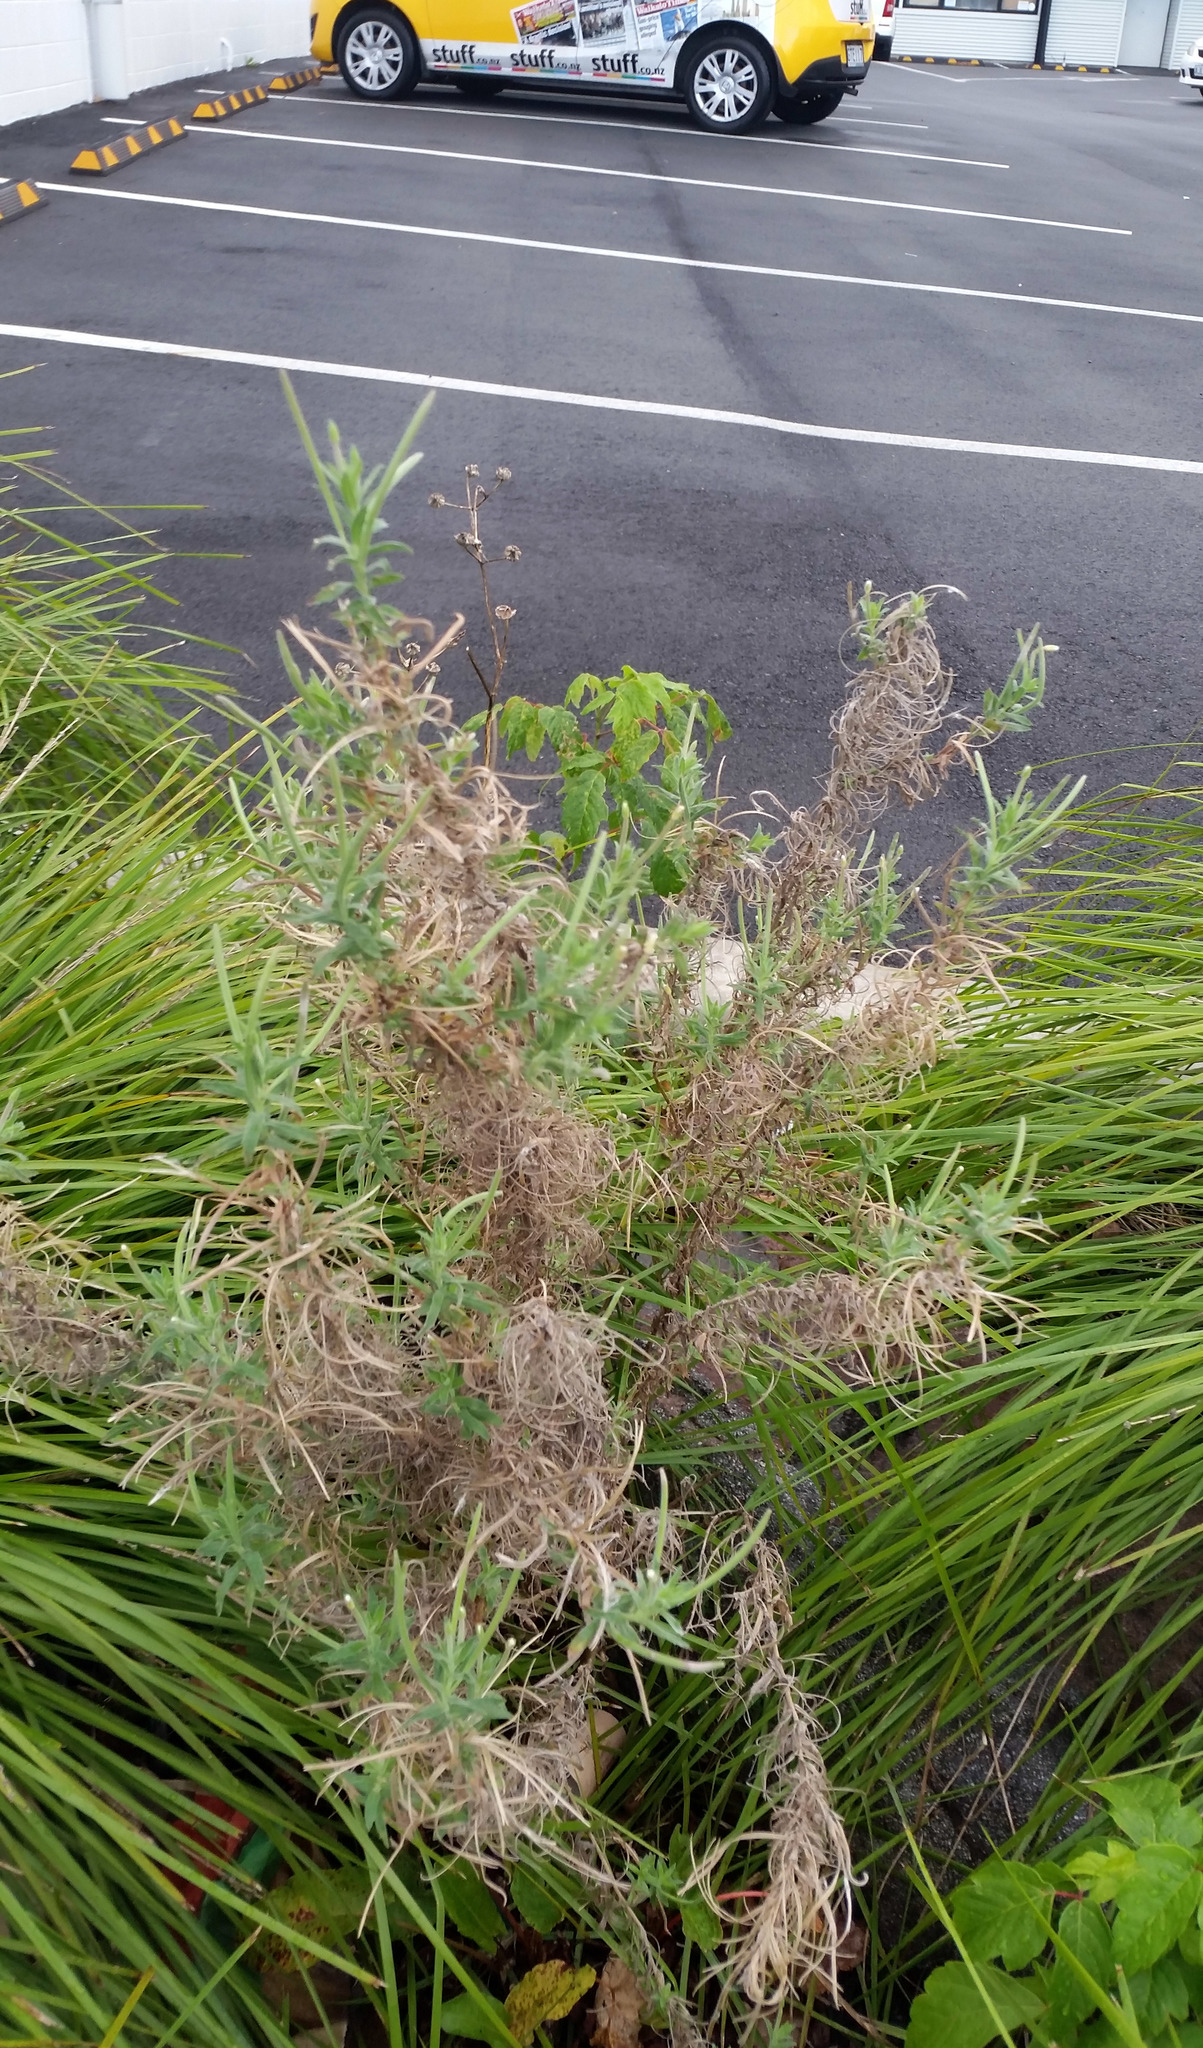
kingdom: Plantae
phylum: Tracheophyta
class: Magnoliopsida
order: Myrtales
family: Onagraceae
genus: Epilobium
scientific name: Epilobium hirtigerum
